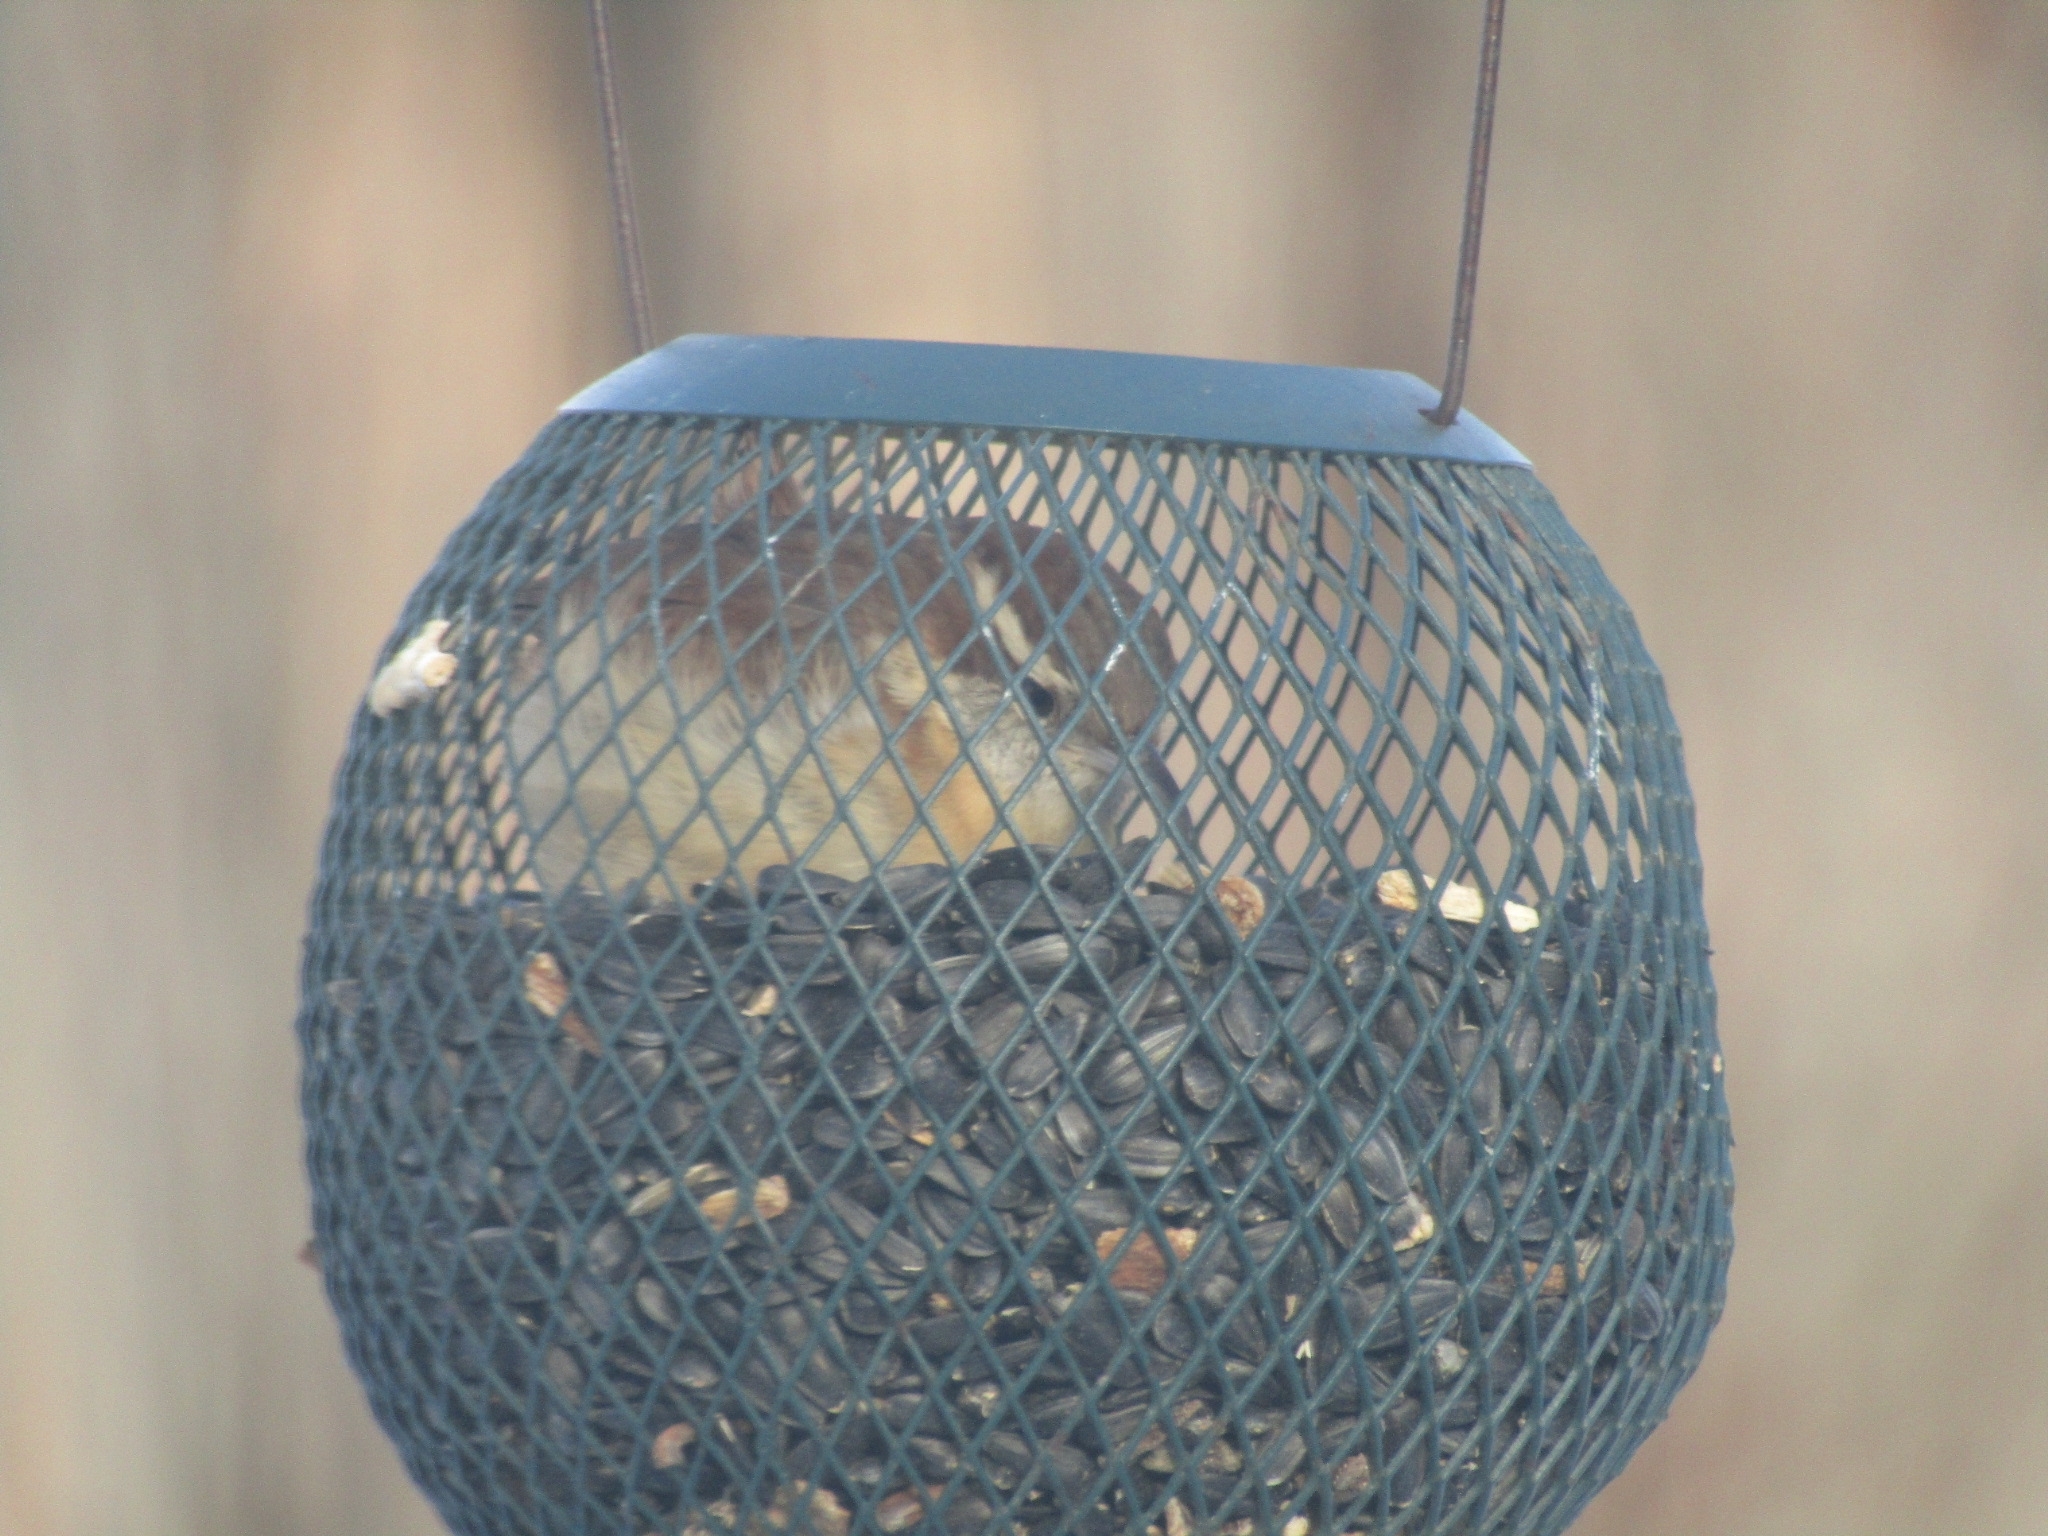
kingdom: Animalia
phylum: Chordata
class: Aves
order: Passeriformes
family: Troglodytidae
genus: Thryothorus
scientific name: Thryothorus ludovicianus
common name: Carolina wren
